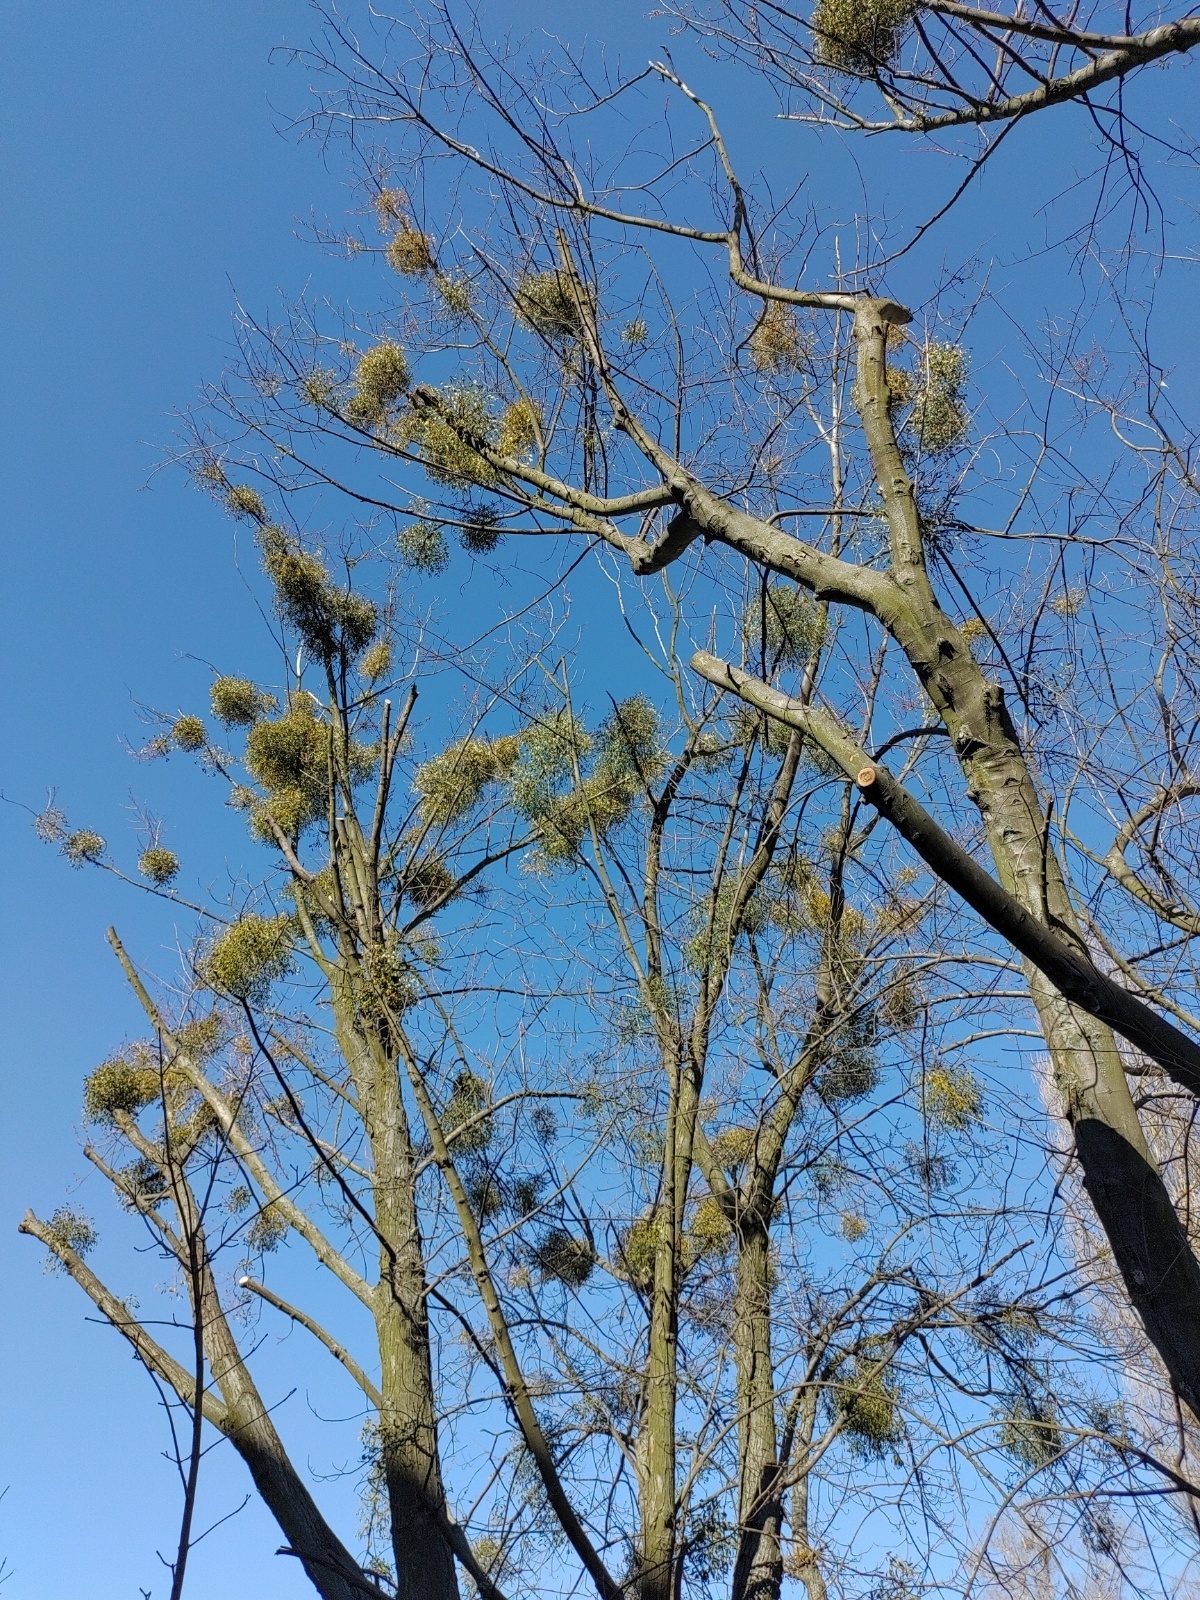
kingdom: Plantae
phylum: Tracheophyta
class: Magnoliopsida
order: Santalales
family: Viscaceae
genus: Viscum
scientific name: Viscum album
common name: Mistletoe
